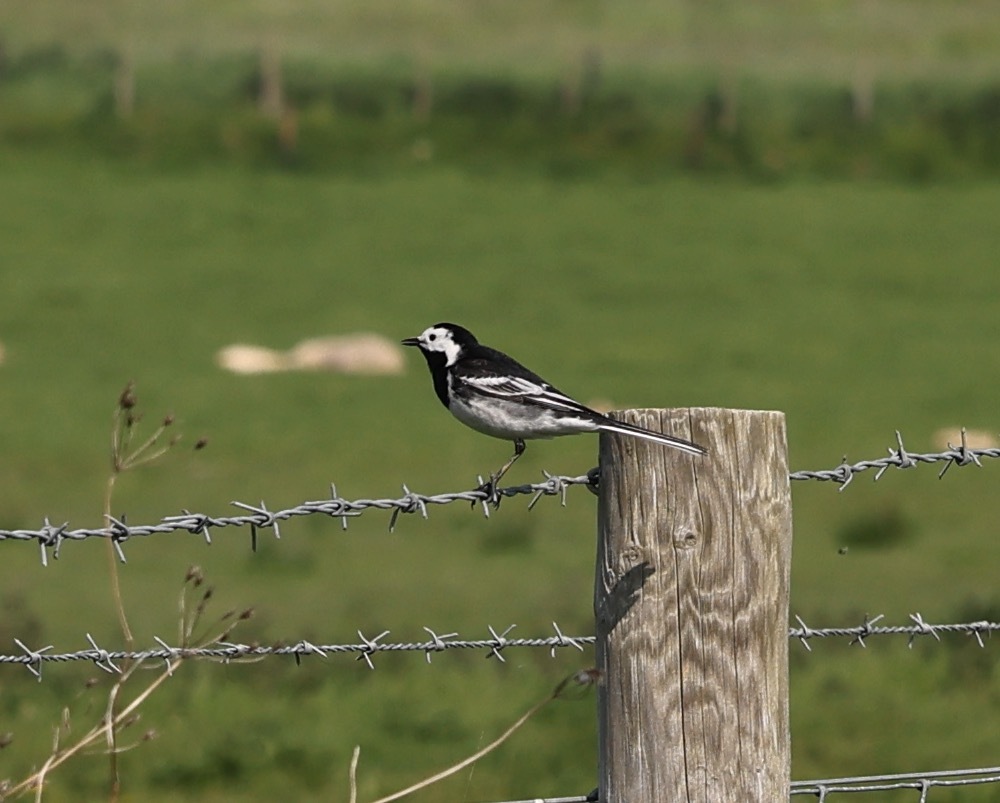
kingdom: Animalia
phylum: Chordata
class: Aves
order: Passeriformes
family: Motacillidae
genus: Motacilla
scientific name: Motacilla alba
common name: White wagtail
